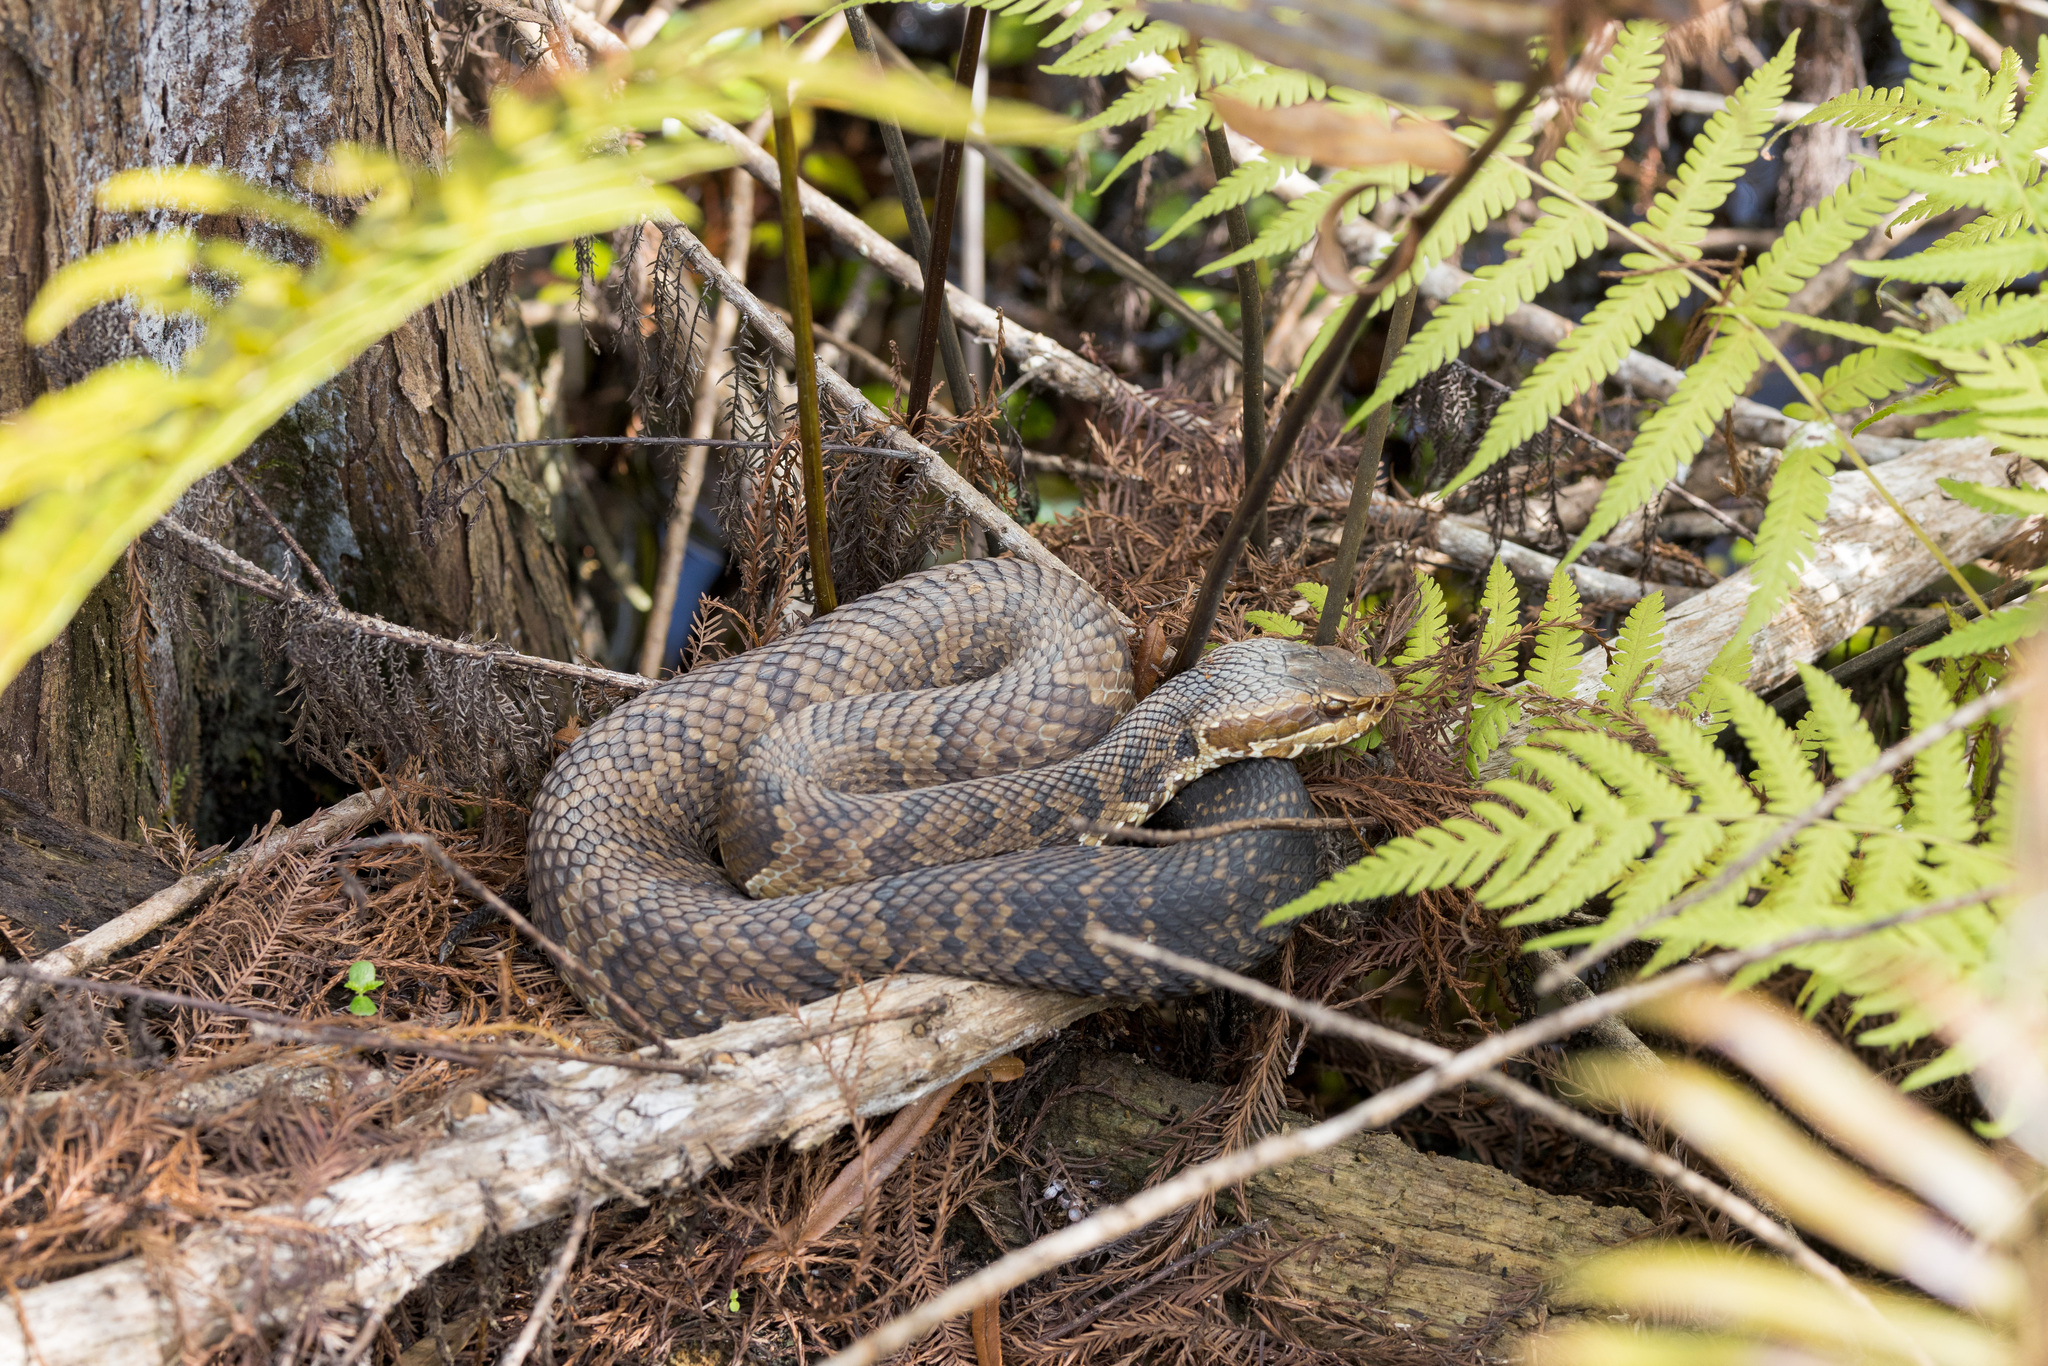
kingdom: Animalia
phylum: Chordata
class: Squamata
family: Viperidae
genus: Agkistrodon
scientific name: Agkistrodon conanti
